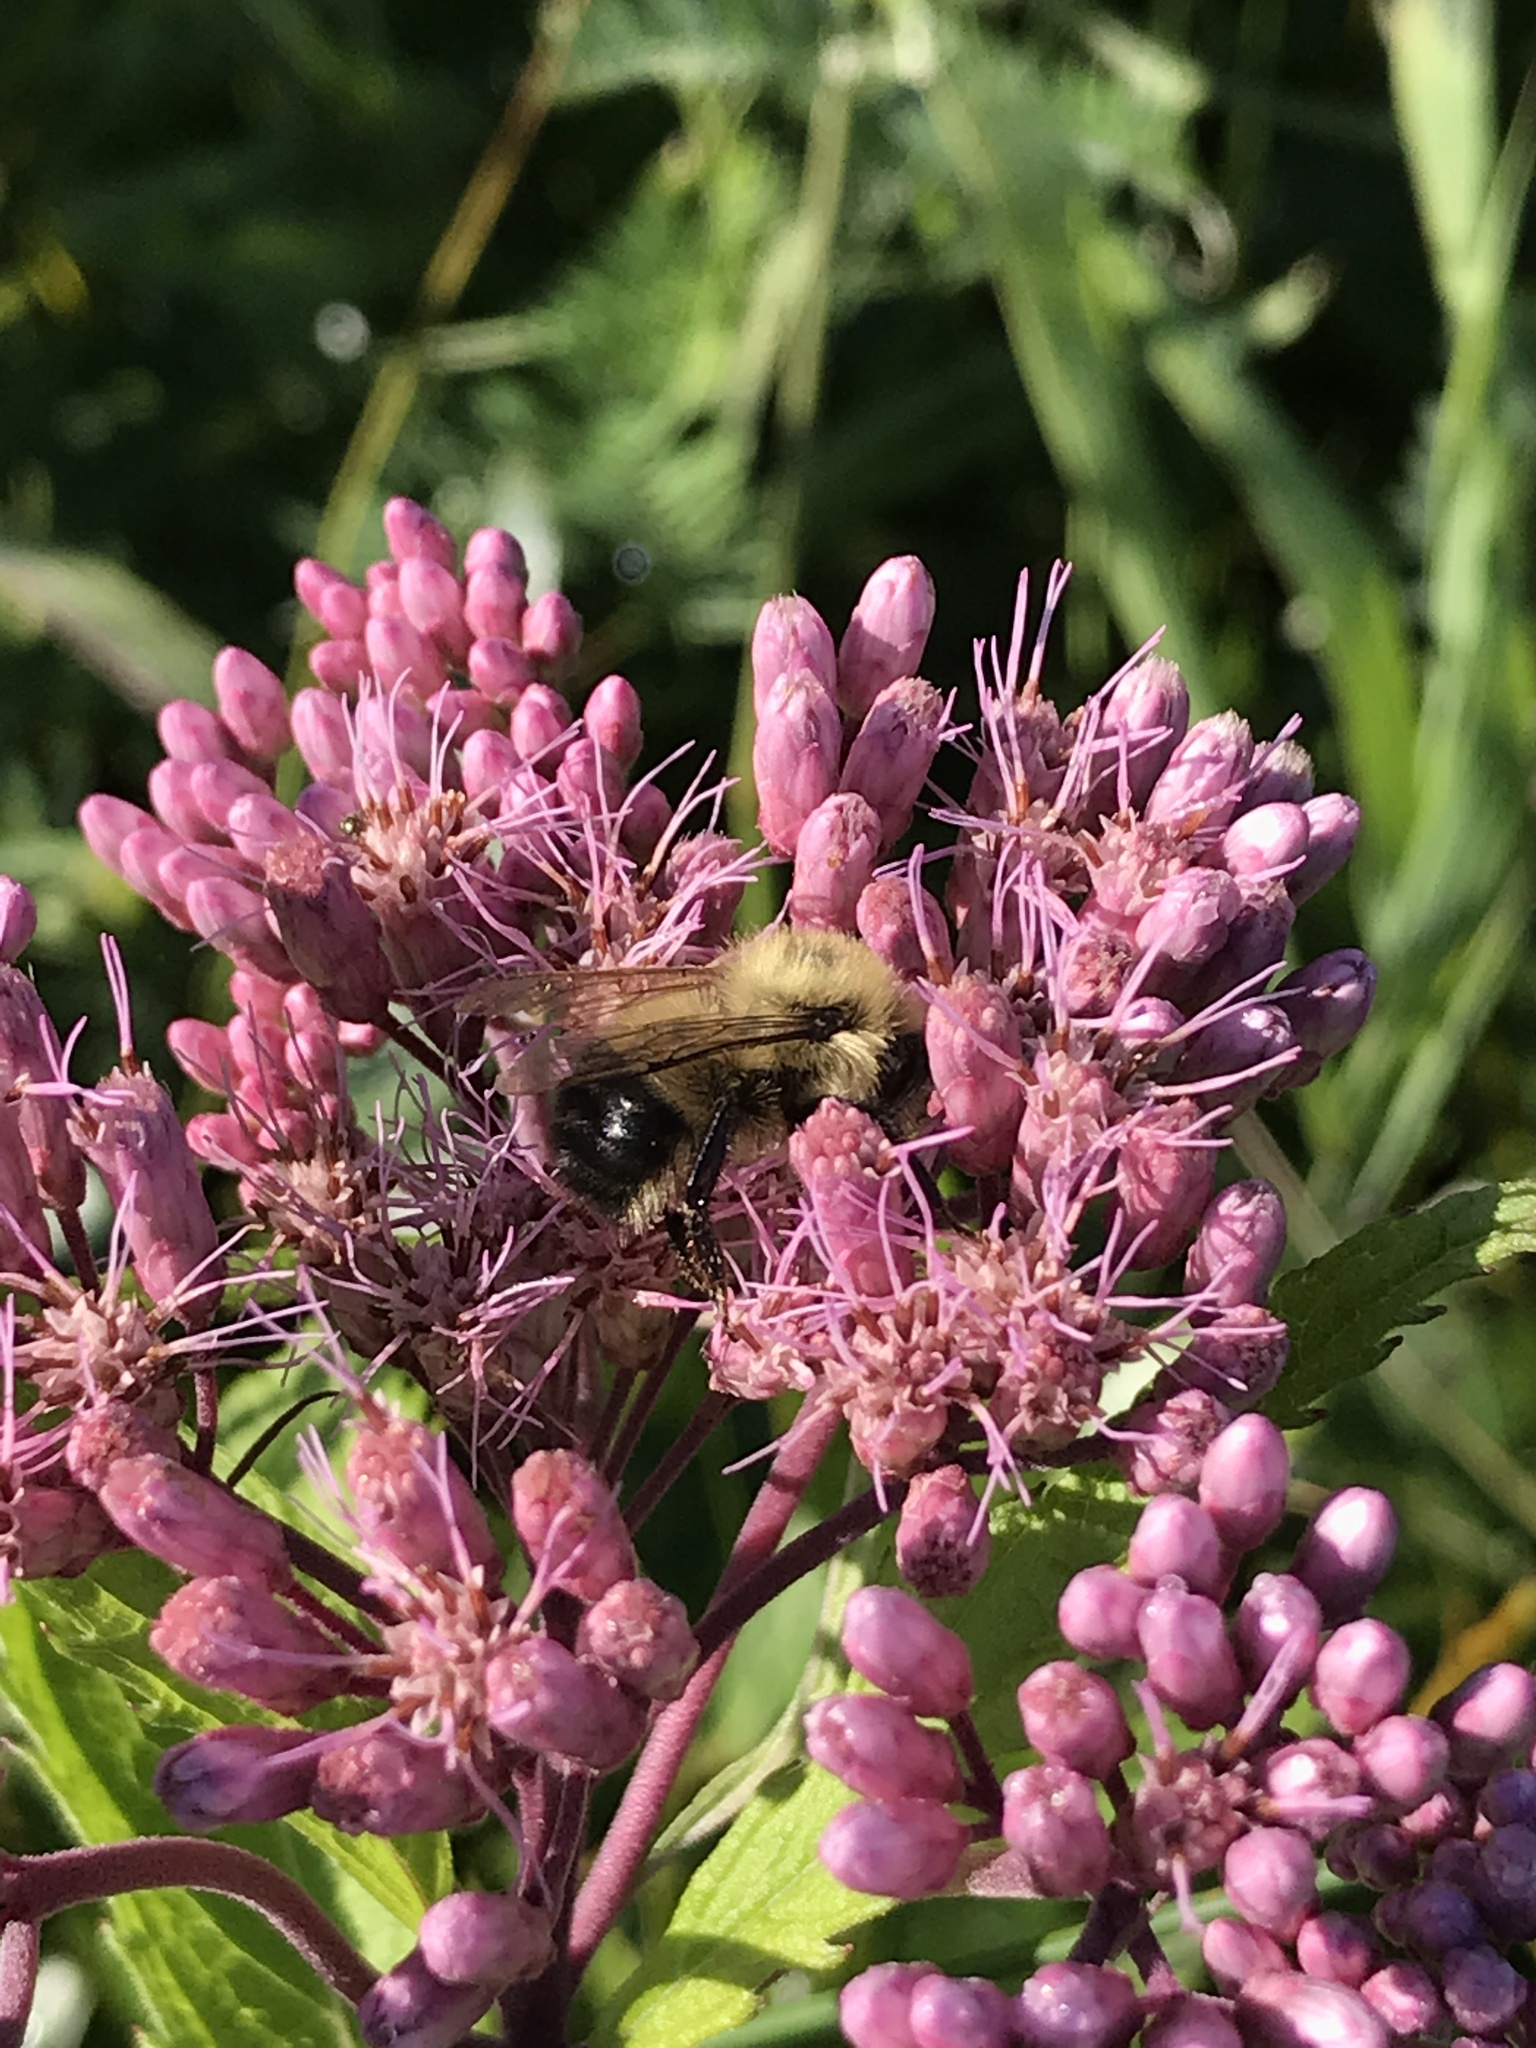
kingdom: Animalia
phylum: Arthropoda
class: Insecta
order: Hymenoptera
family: Apidae
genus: Bombus
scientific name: Bombus perplexus
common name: Confusing bumble bee
